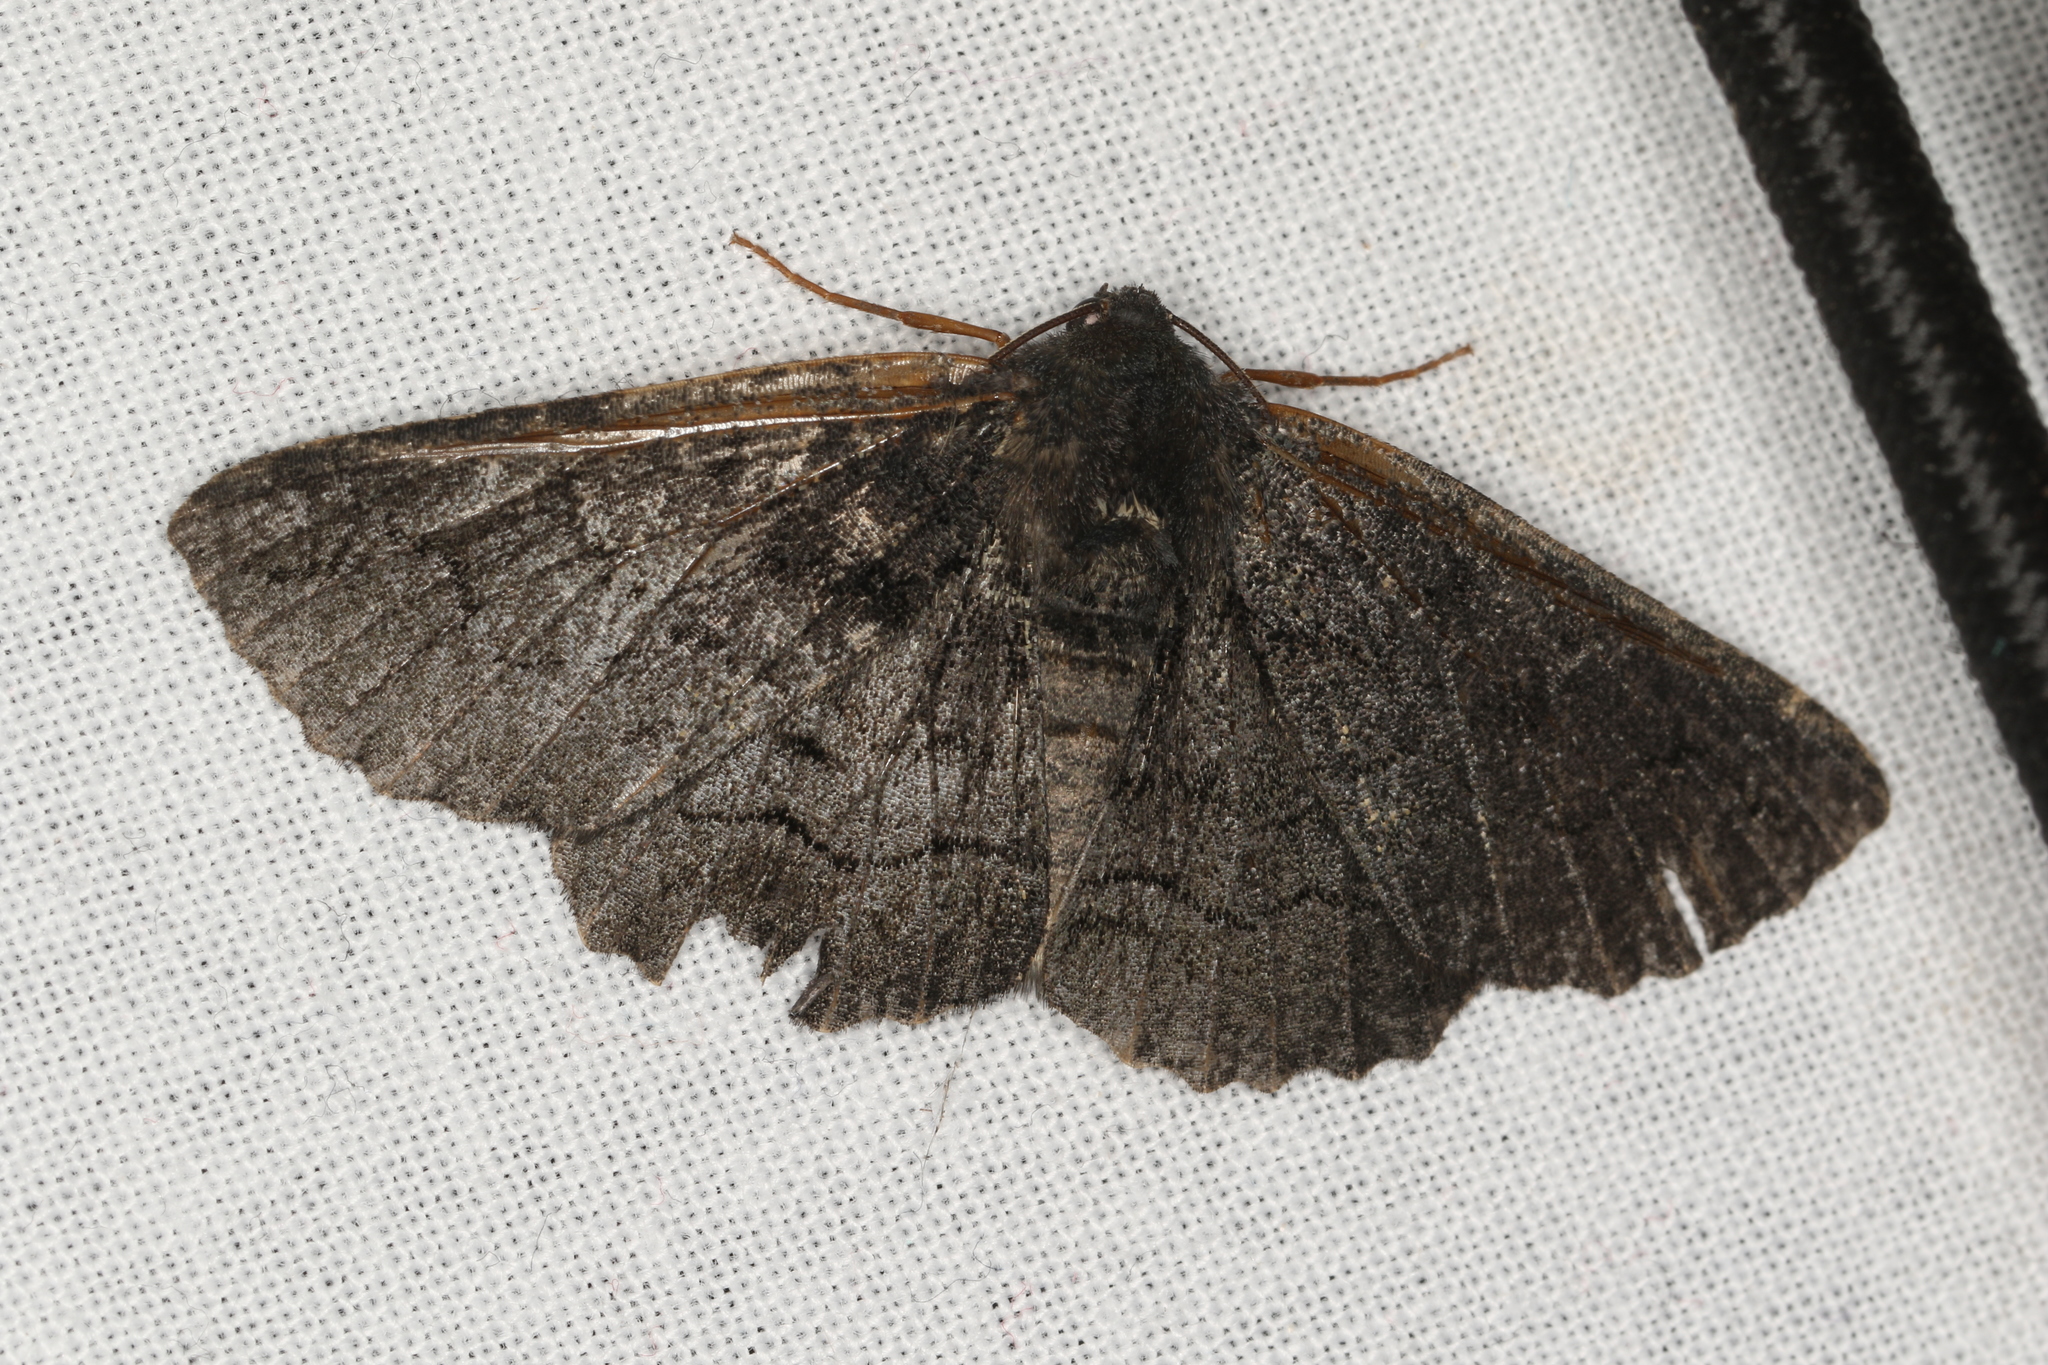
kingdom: Animalia
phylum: Arthropoda
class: Insecta
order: Lepidoptera
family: Geometridae
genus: Melanodes
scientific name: Melanodes anthracitaria
